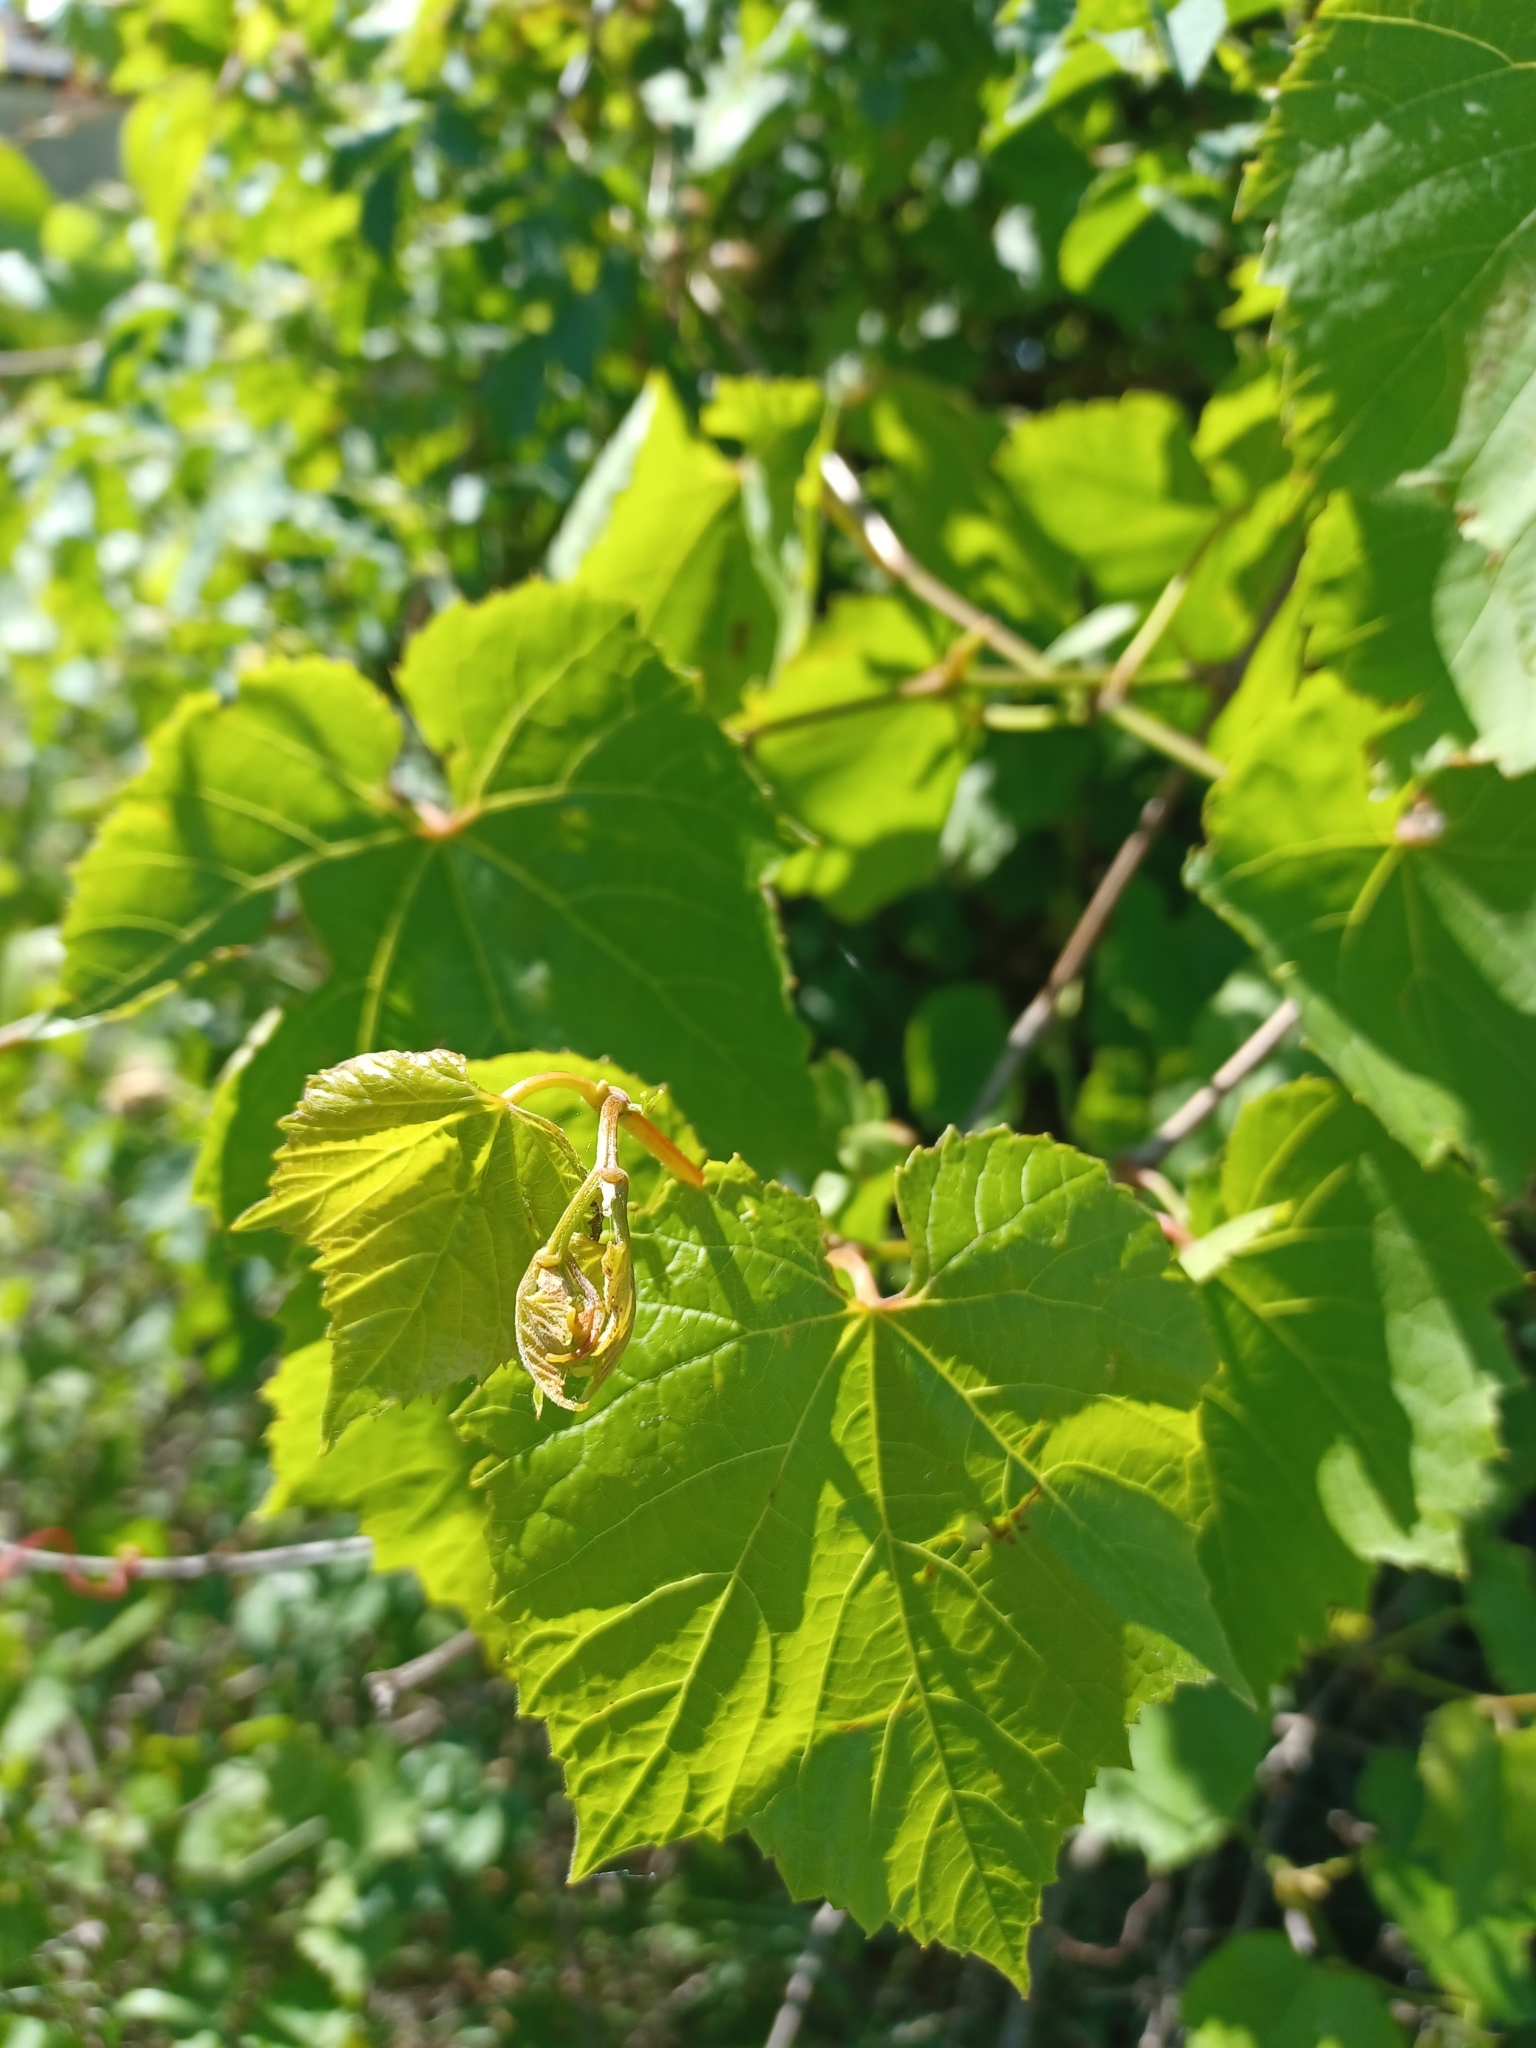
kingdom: Plantae
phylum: Tracheophyta
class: Magnoliopsida
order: Vitales
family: Vitaceae
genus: Vitis
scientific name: Vitis vinifera
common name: Grape-vine
